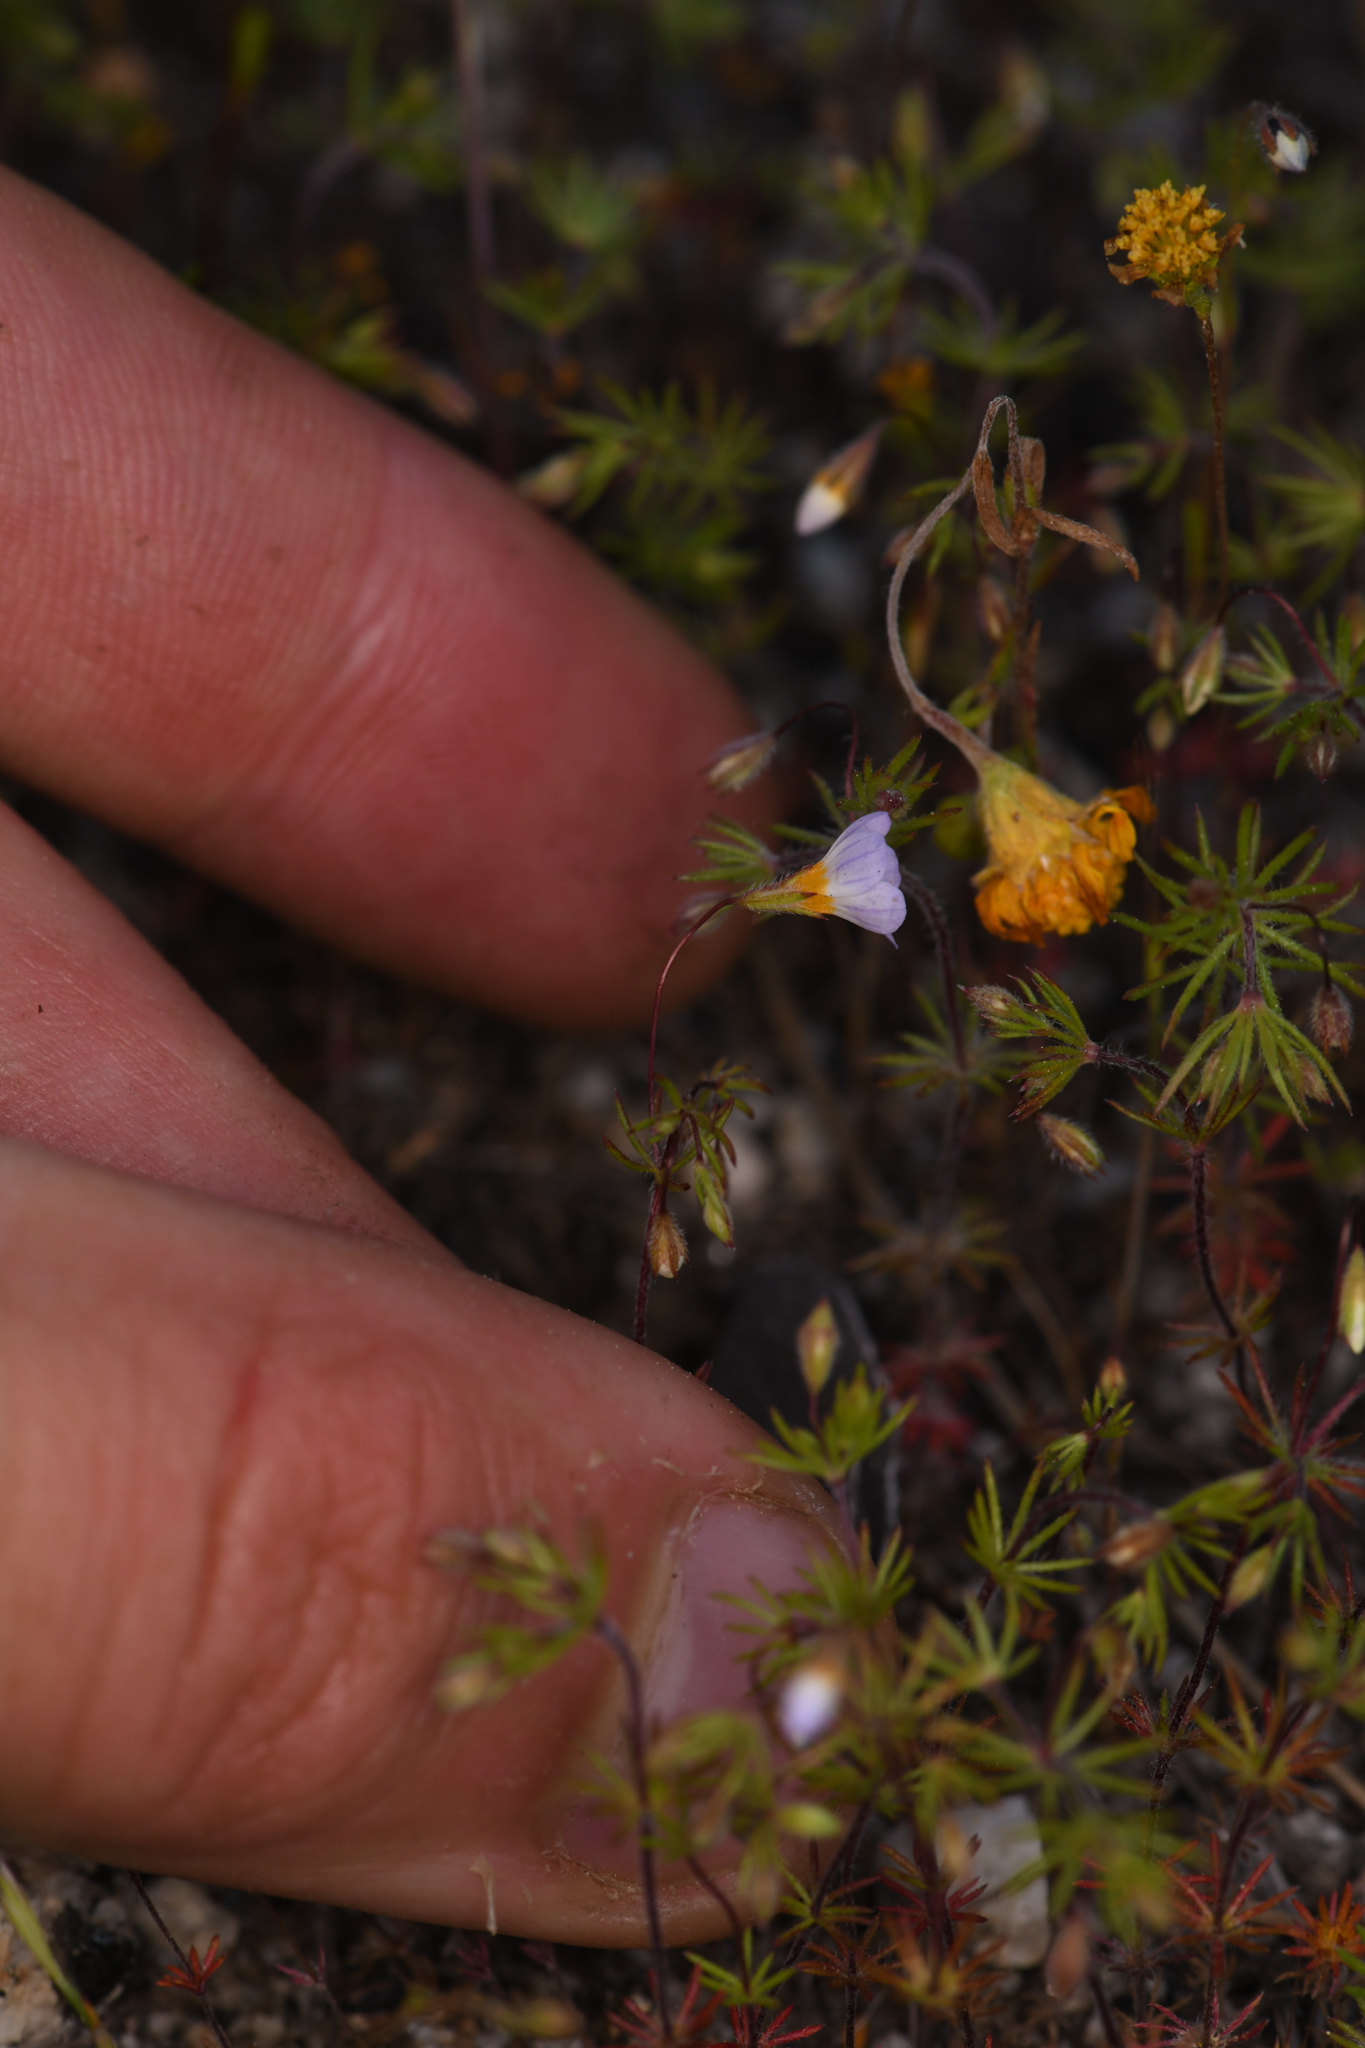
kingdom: Plantae
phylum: Tracheophyta
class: Magnoliopsida
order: Ericales
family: Polemoniaceae
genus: Leptosiphon
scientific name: Leptosiphon filipes
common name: Thread linanthus
